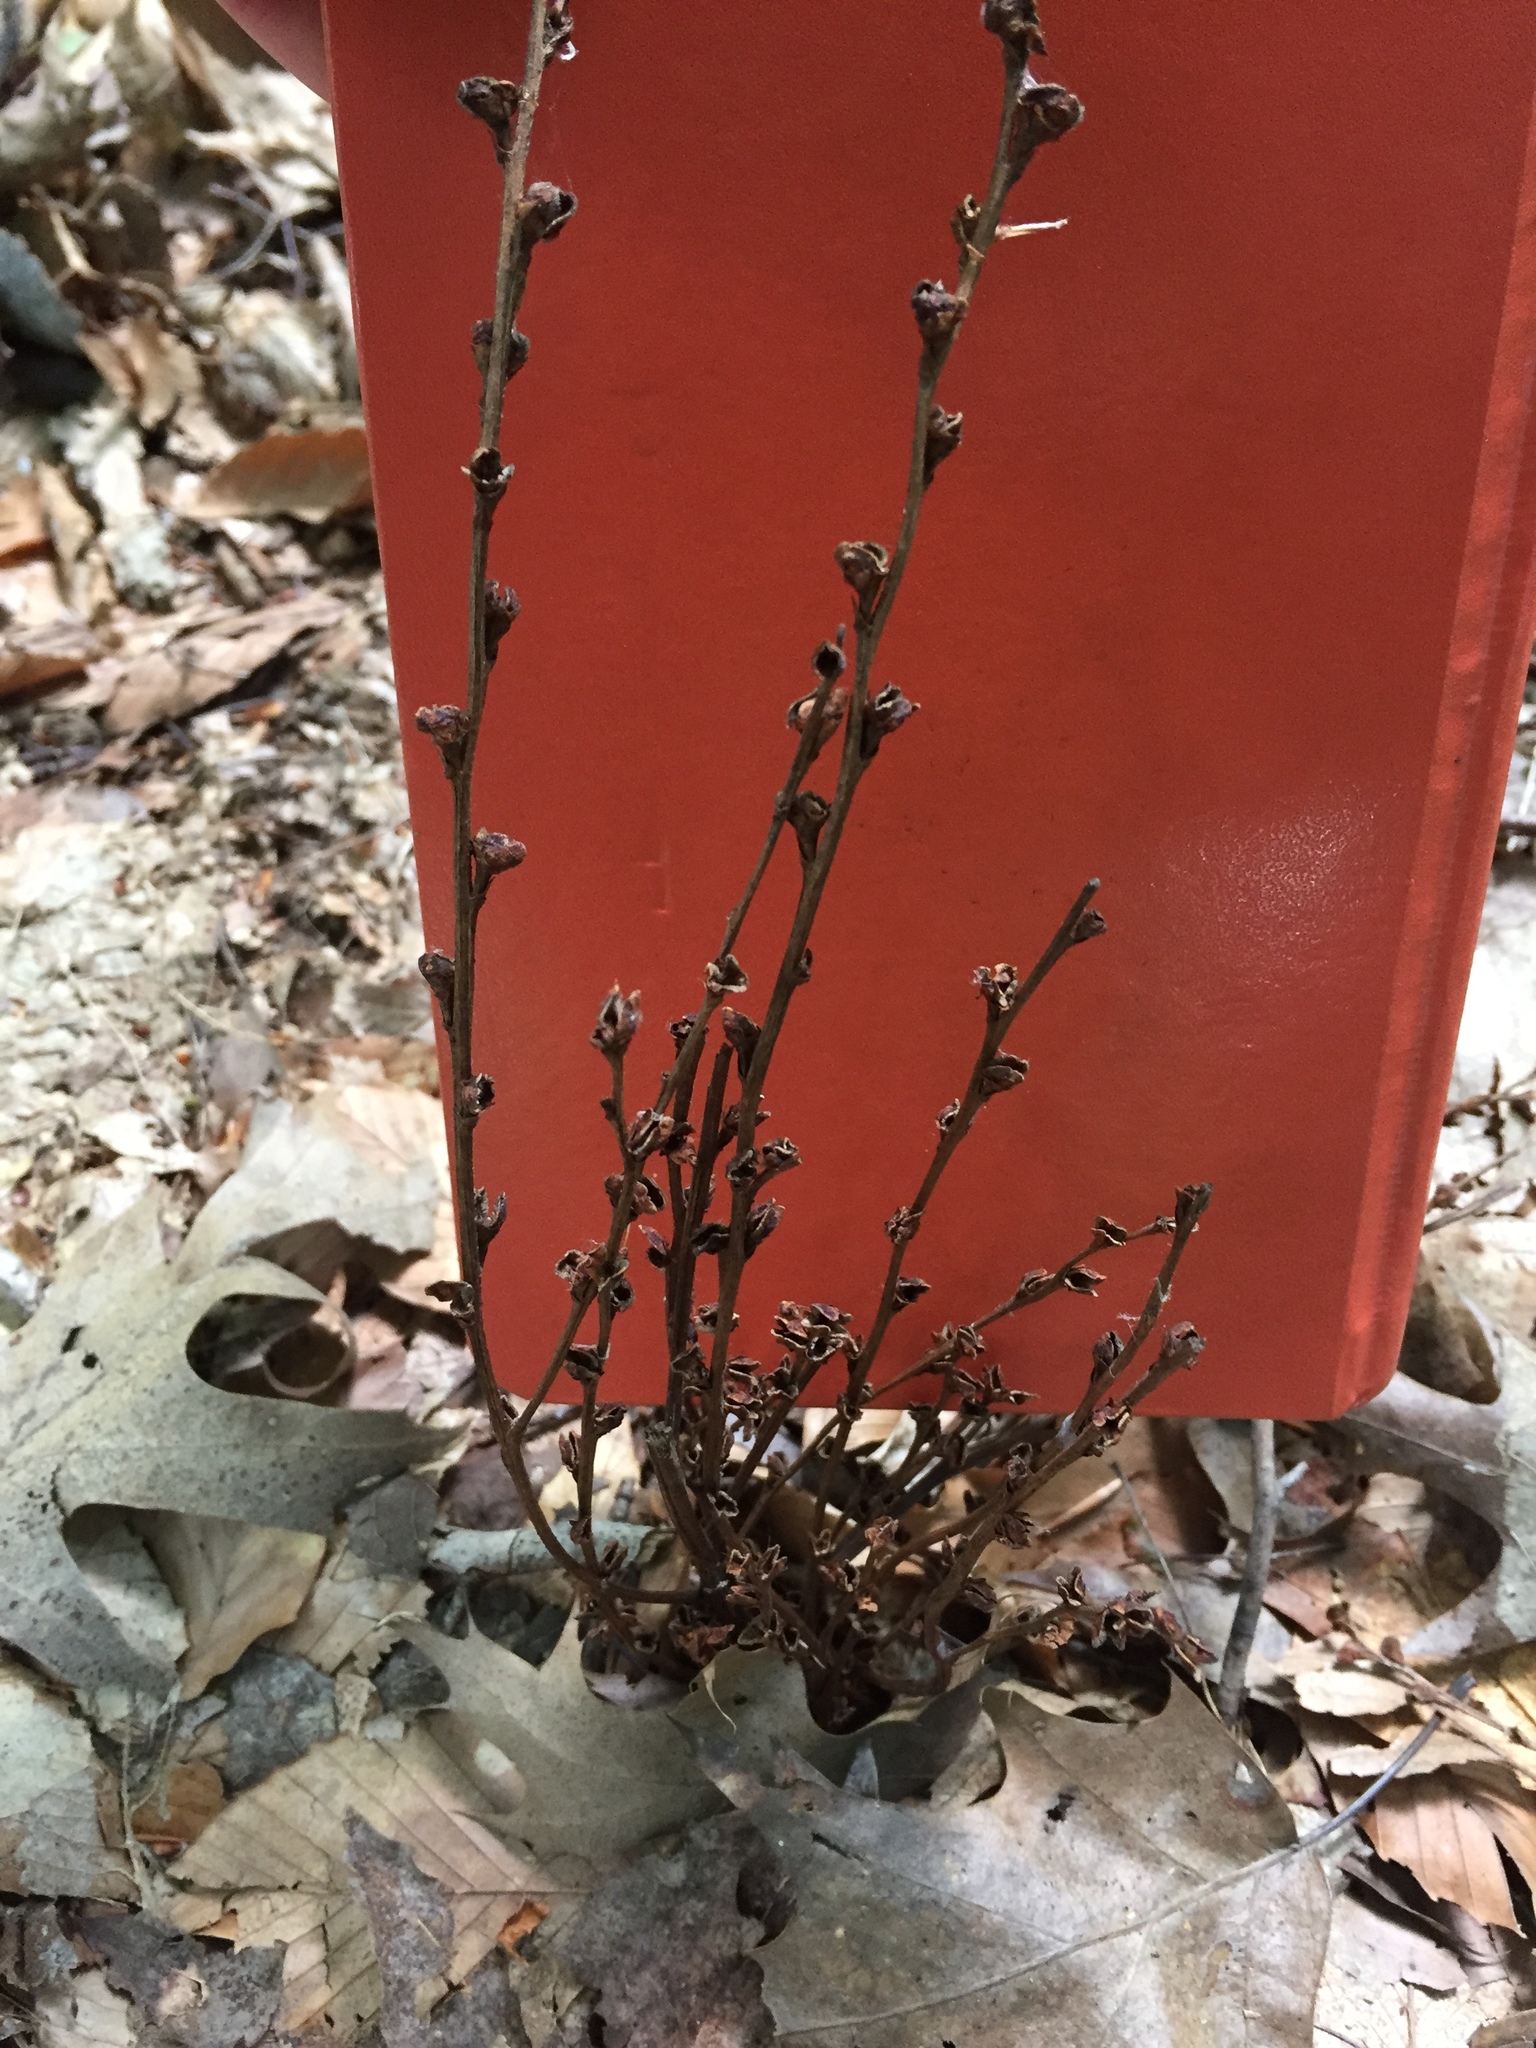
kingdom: Plantae
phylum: Tracheophyta
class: Magnoliopsida
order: Lamiales
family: Orobanchaceae
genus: Epifagus
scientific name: Epifagus virginiana
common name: Beechdrops
